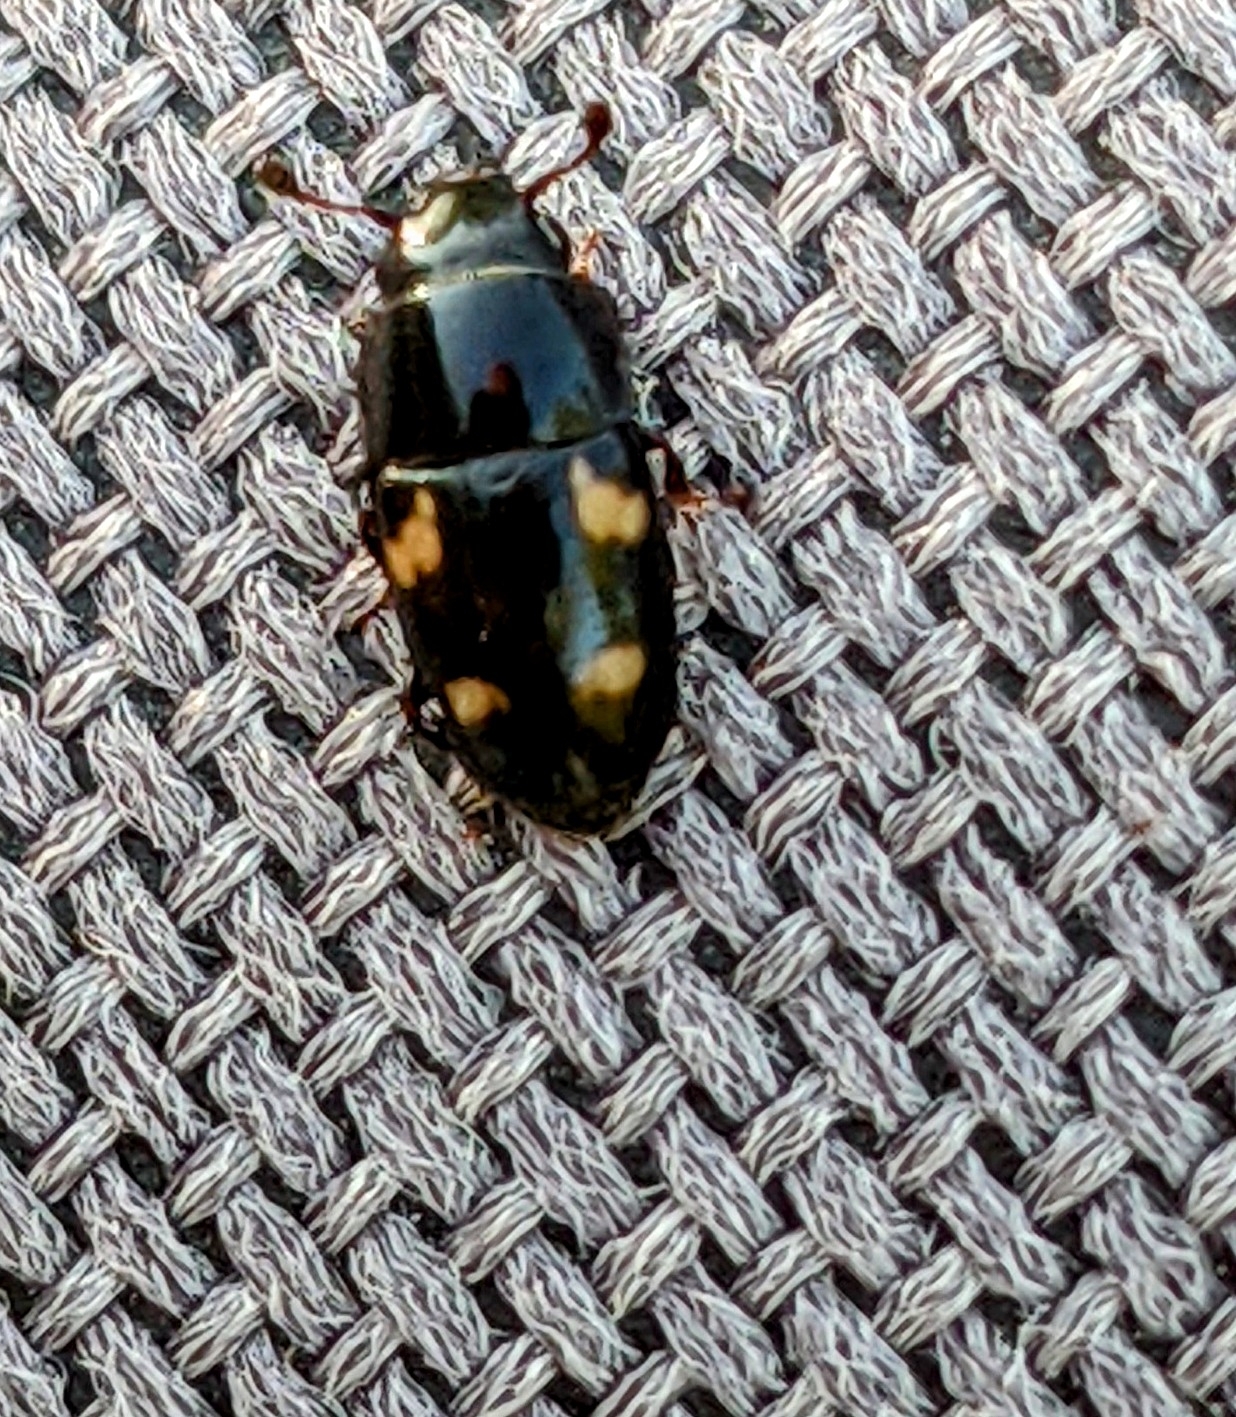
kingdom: Animalia
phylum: Arthropoda
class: Insecta
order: Coleoptera
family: Nitidulidae
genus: Glischrochilus
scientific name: Glischrochilus quadrisignatus
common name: Picnic beetle
